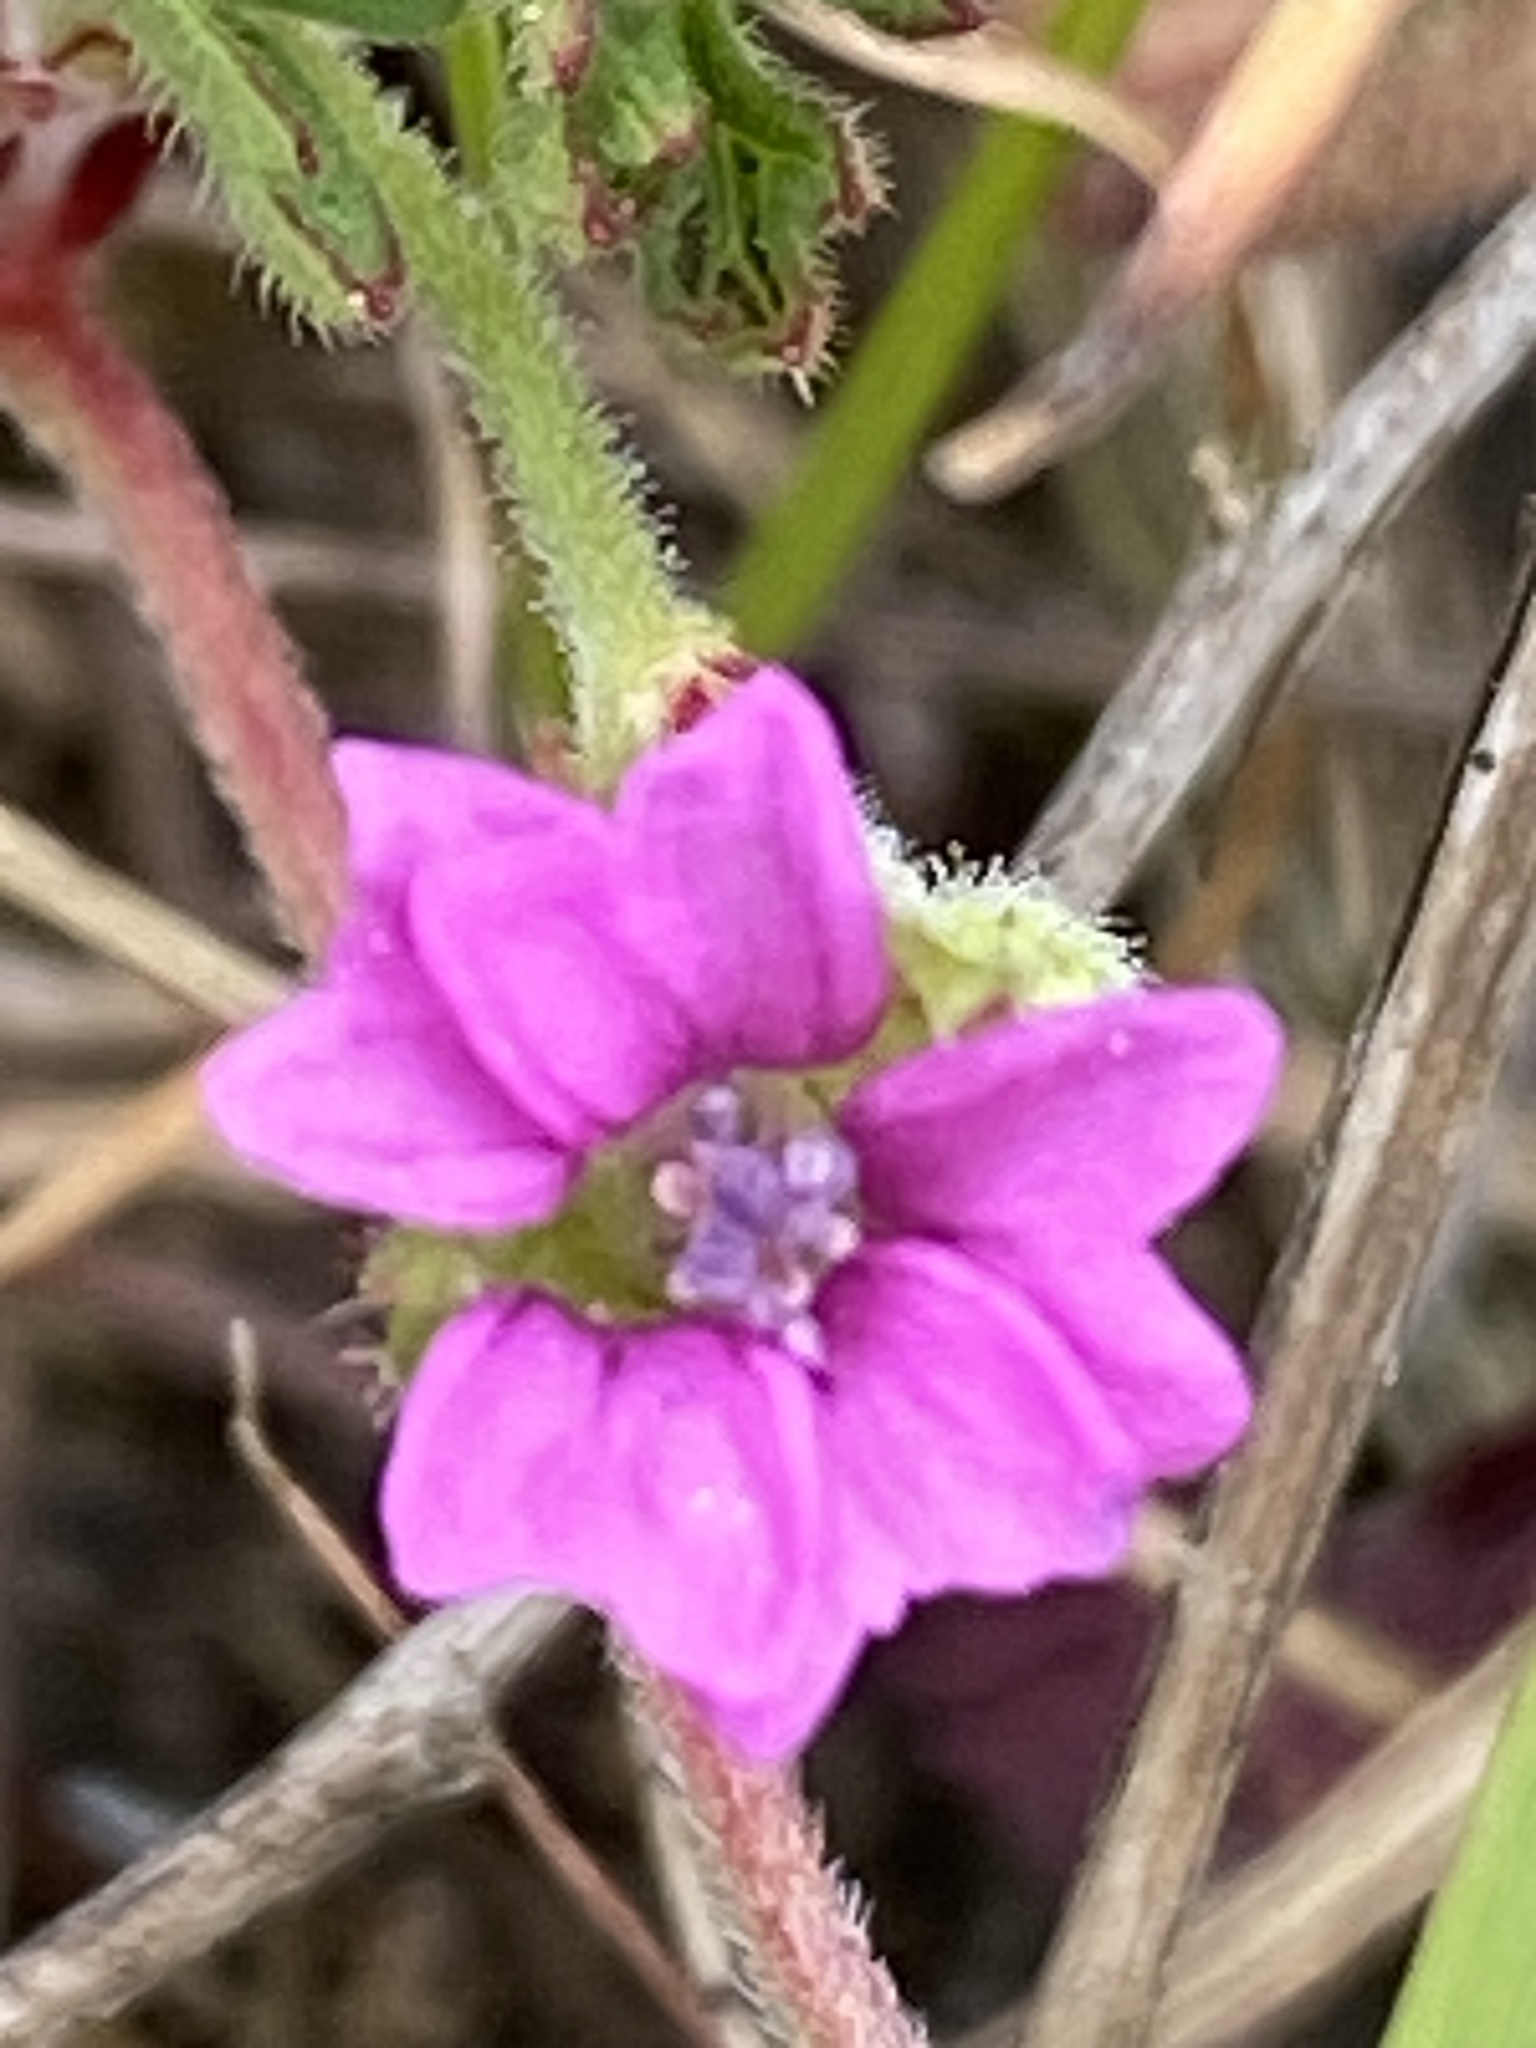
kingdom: Plantae
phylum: Tracheophyta
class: Magnoliopsida
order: Geraniales
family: Geraniaceae
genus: Geranium
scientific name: Geranium dissectum
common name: Cut-leaved crane's-bill
